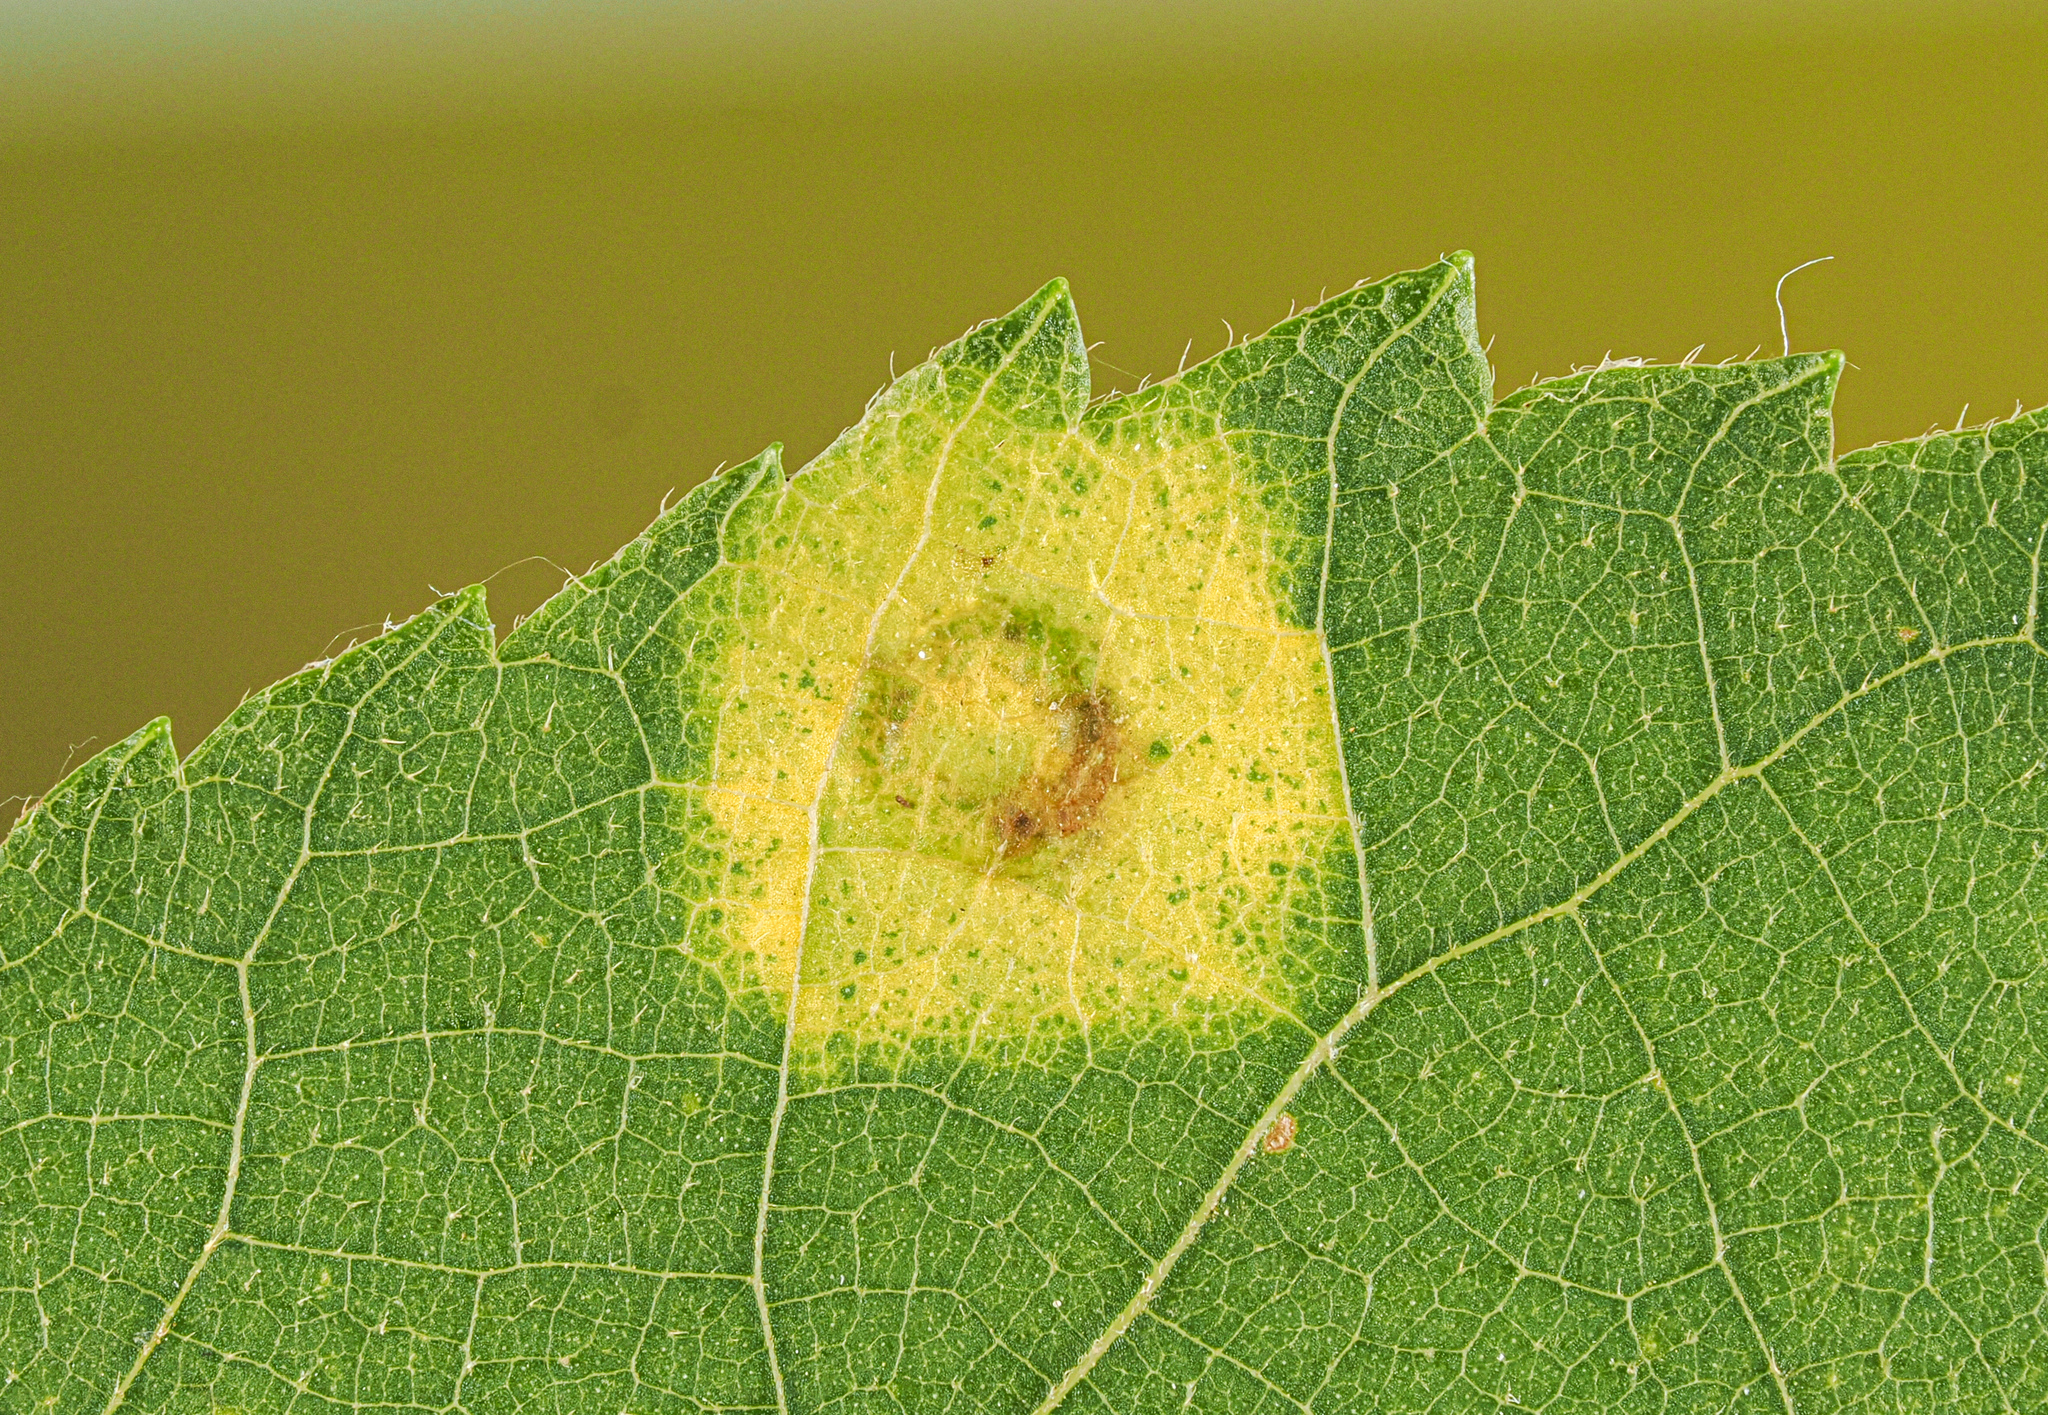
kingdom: Animalia
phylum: Arthropoda
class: Insecta
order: Diptera
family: Cecidomyiidae
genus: Gliaspilota
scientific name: Gliaspilota glutinosa
